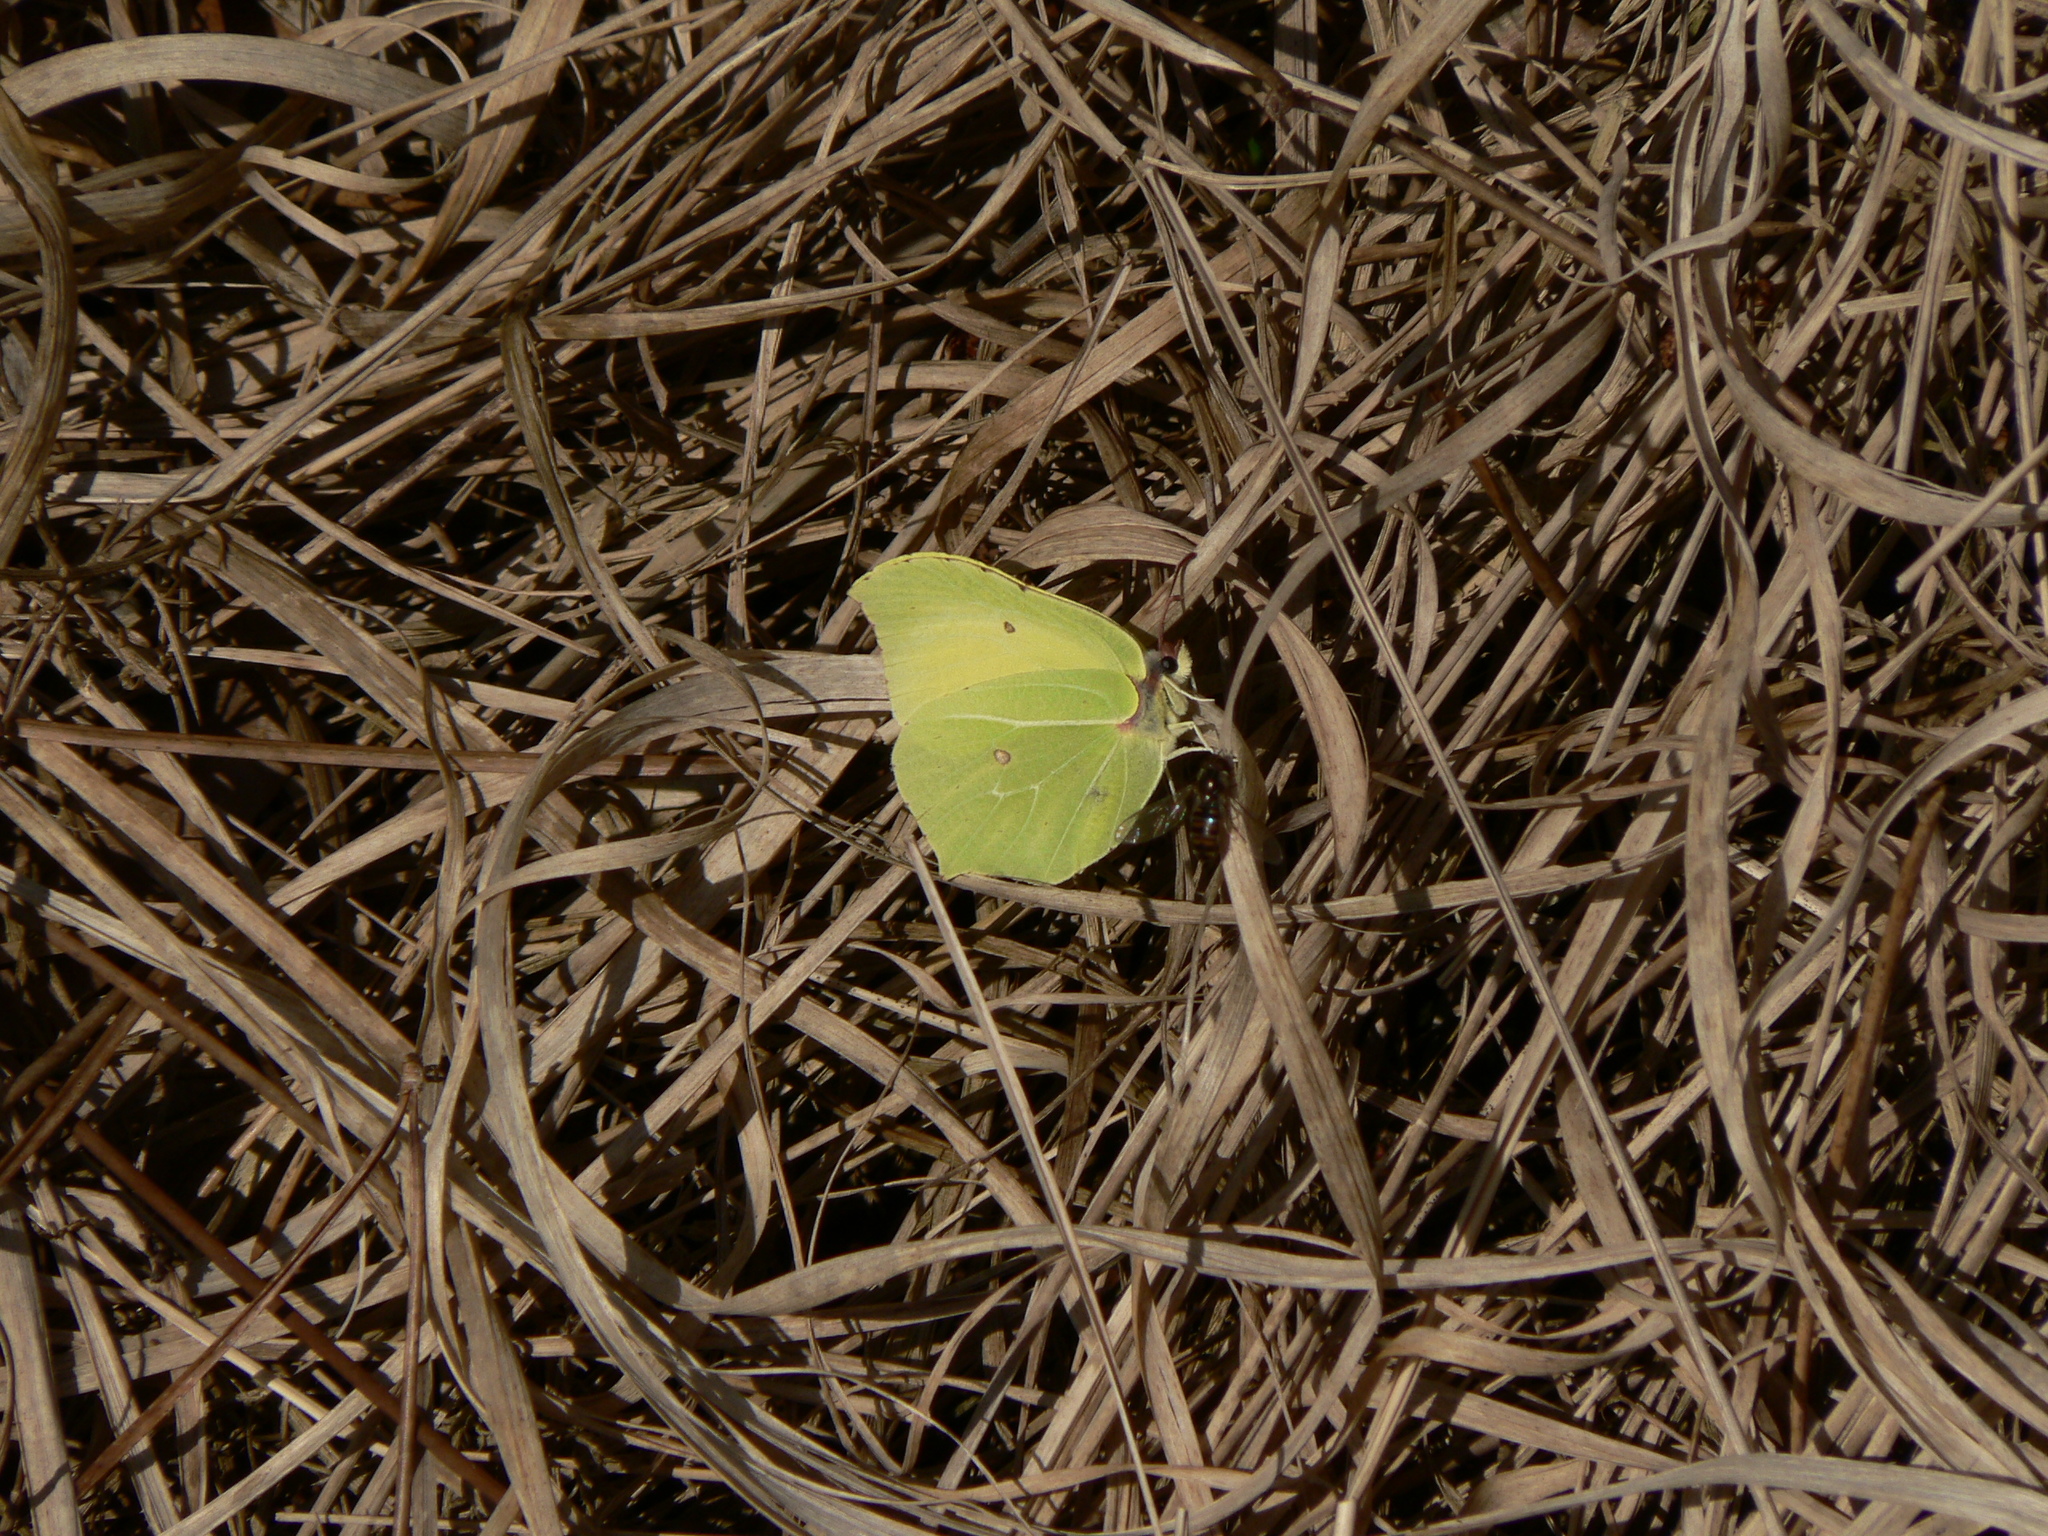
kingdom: Animalia
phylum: Arthropoda
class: Insecta
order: Lepidoptera
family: Pieridae
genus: Gonepteryx
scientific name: Gonepteryx rhamni
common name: Brimstone
